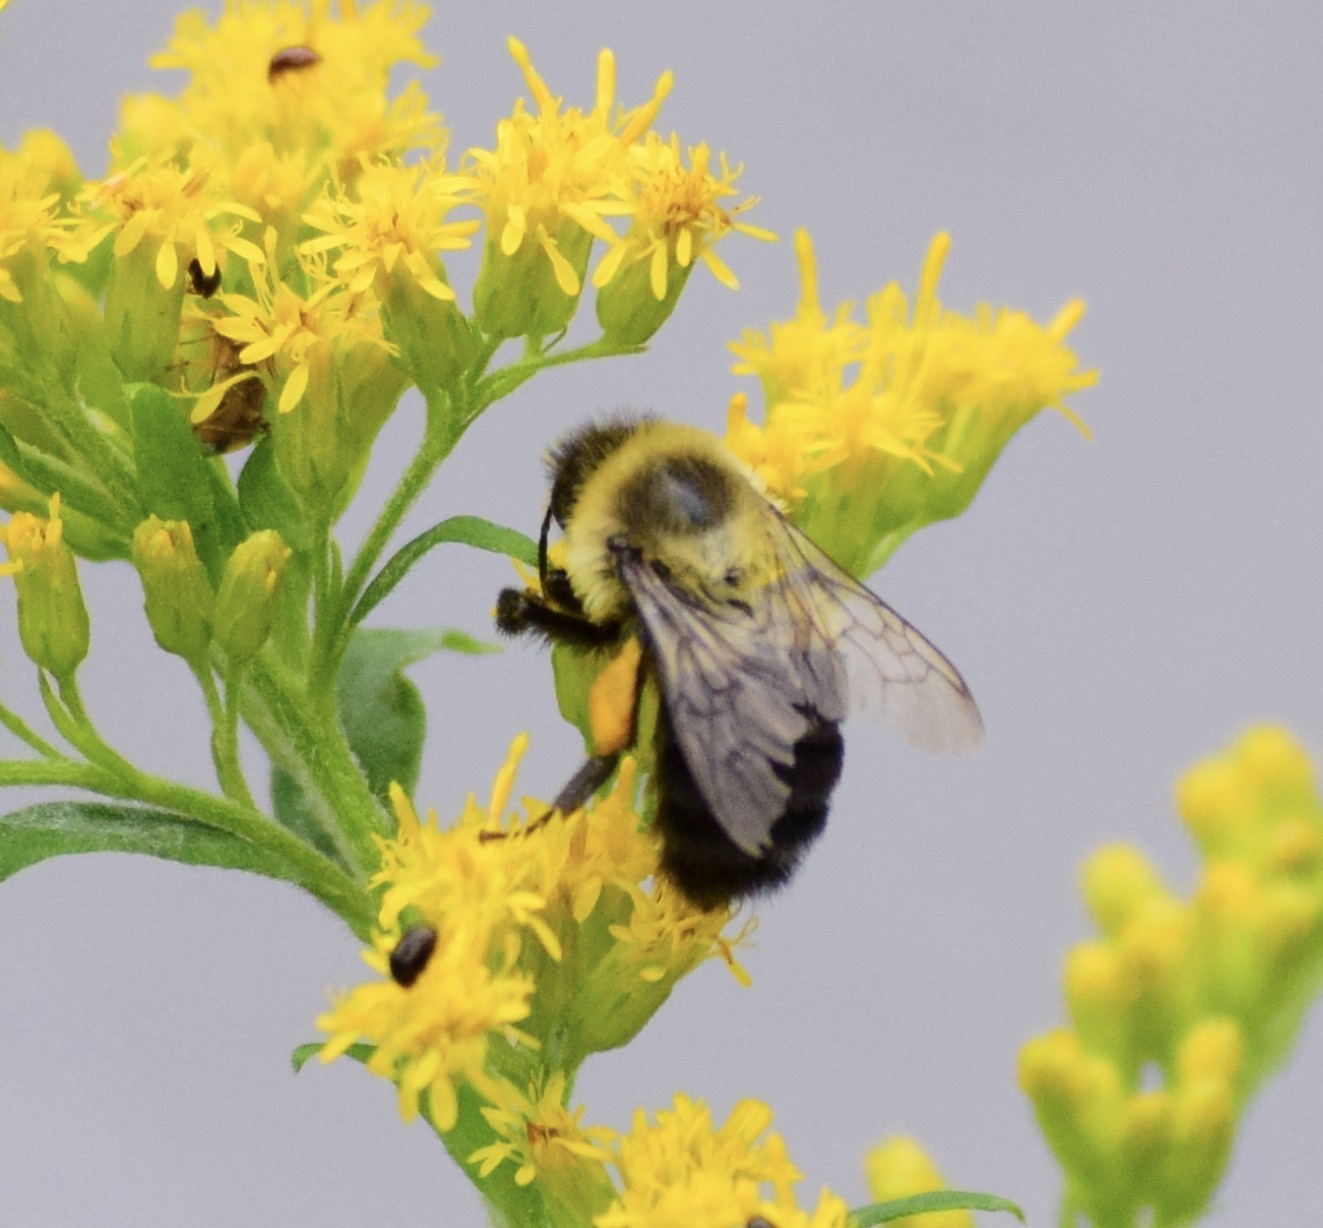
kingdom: Animalia
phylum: Arthropoda
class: Insecta
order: Hymenoptera
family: Apidae
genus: Bombus
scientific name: Bombus impatiens
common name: Common eastern bumble bee
